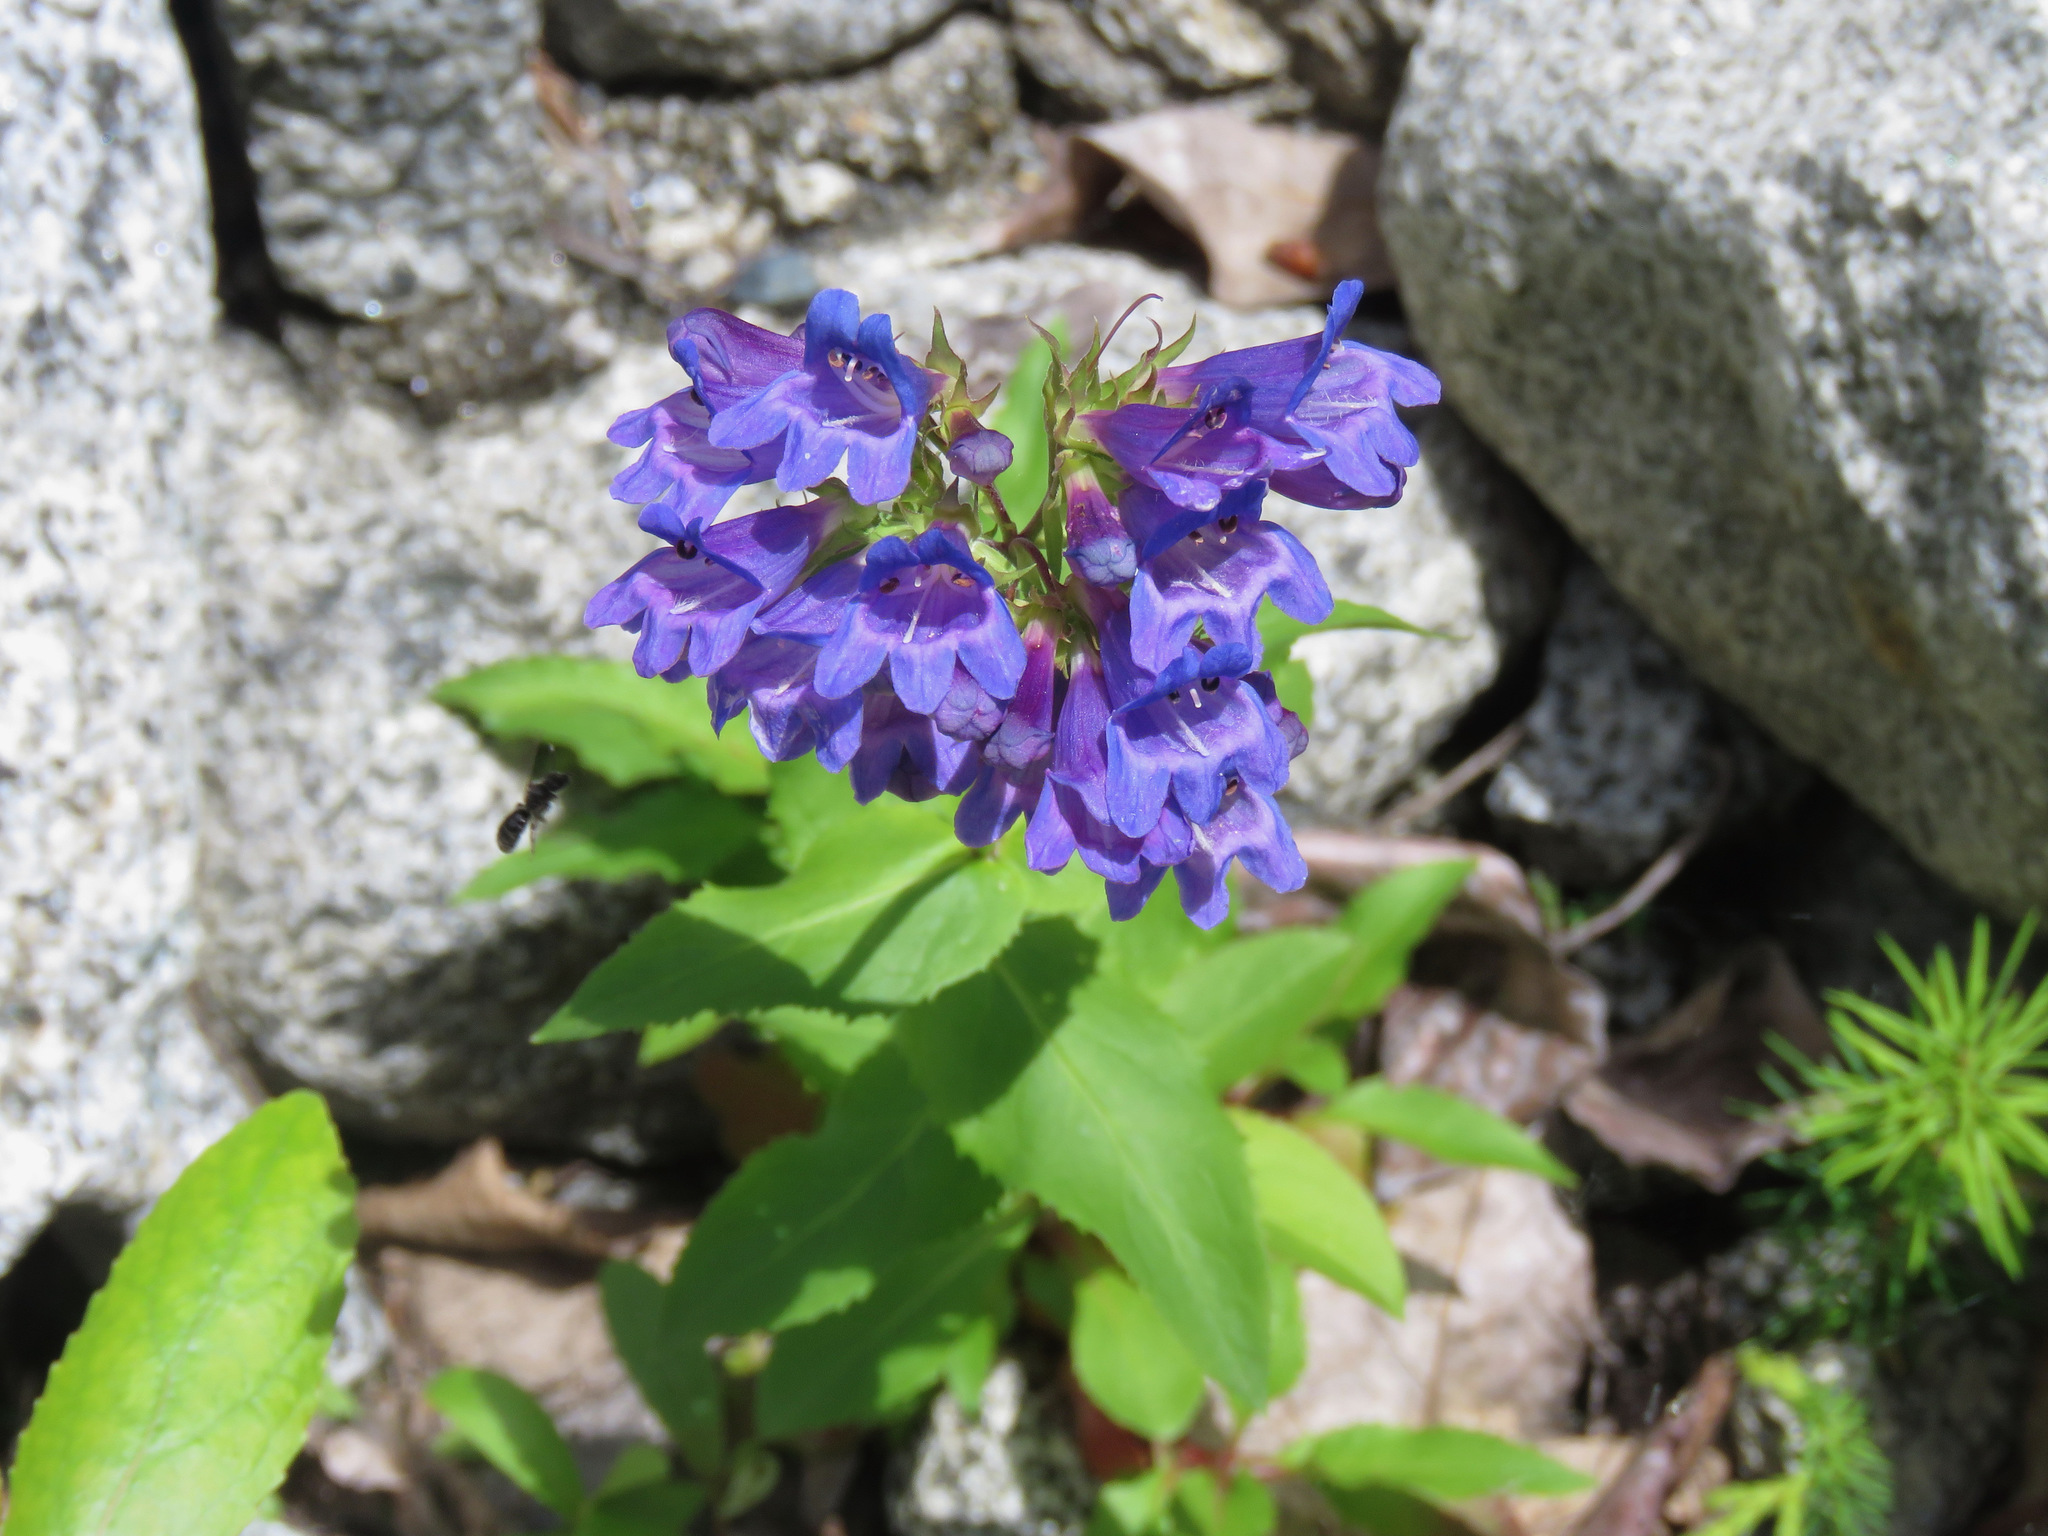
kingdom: Plantae
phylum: Tracheophyta
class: Magnoliopsida
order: Lamiales
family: Plantaginaceae
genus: Penstemon
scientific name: Penstemon serrulatus
